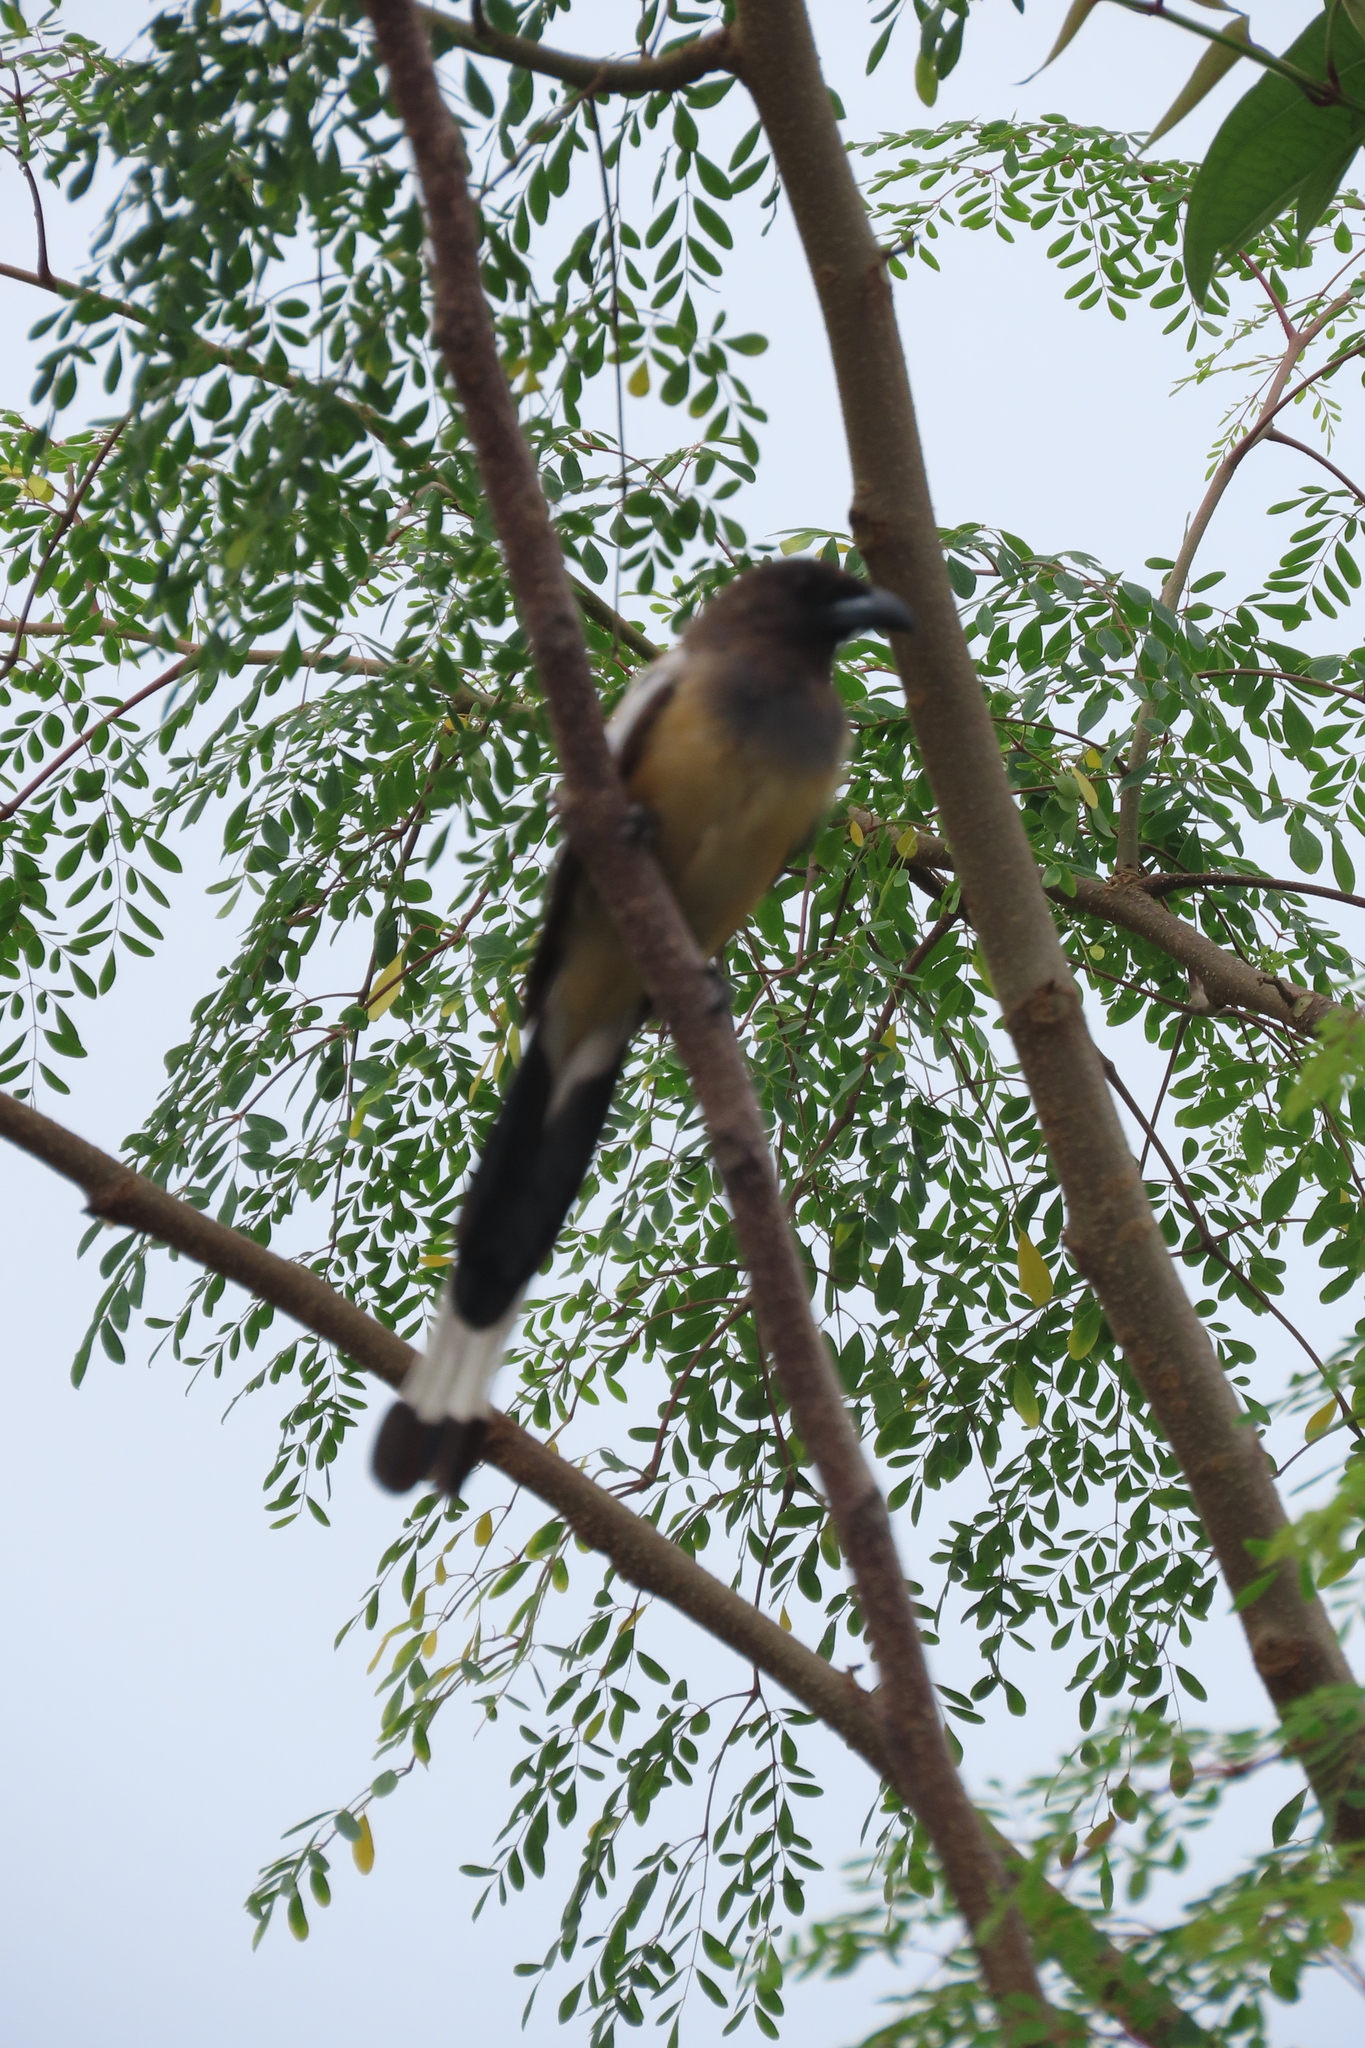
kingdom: Animalia
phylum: Chordata
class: Aves
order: Passeriformes
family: Corvidae
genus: Dendrocitta
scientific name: Dendrocitta vagabunda
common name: Rufous treepie
